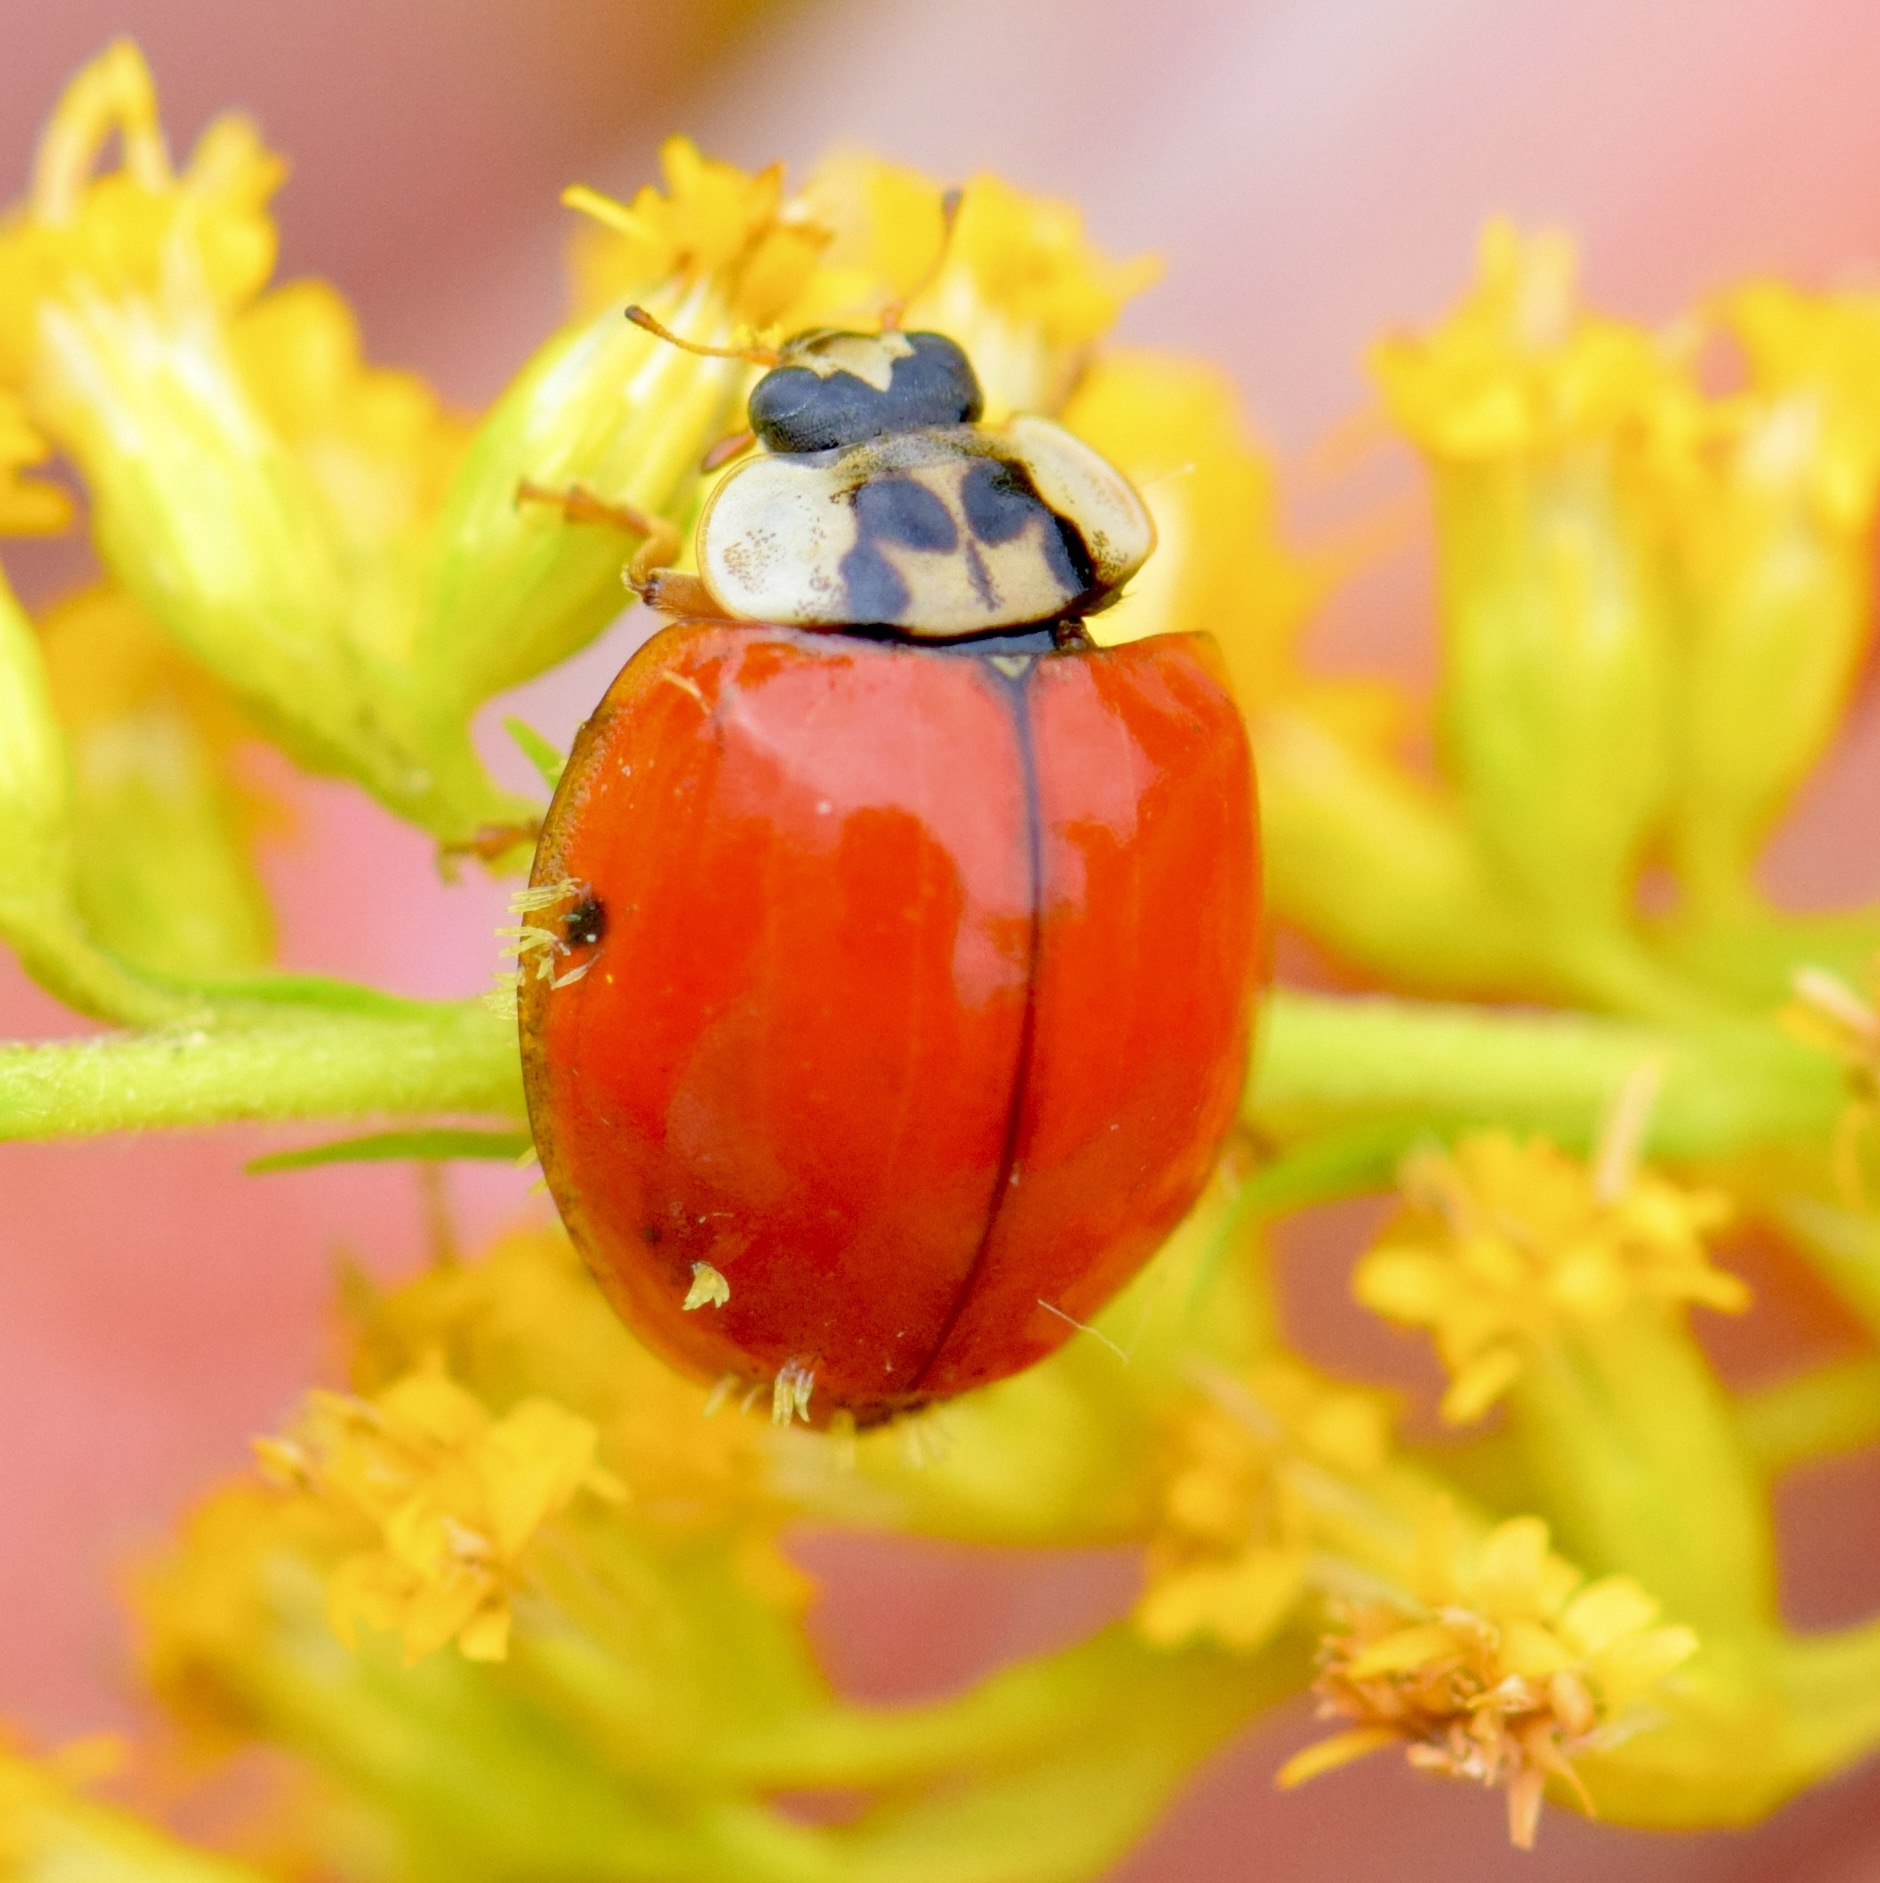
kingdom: Animalia
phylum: Arthropoda
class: Insecta
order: Coleoptera
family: Coccinellidae
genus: Harmonia
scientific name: Harmonia axyridis
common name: Harlequin ladybird
